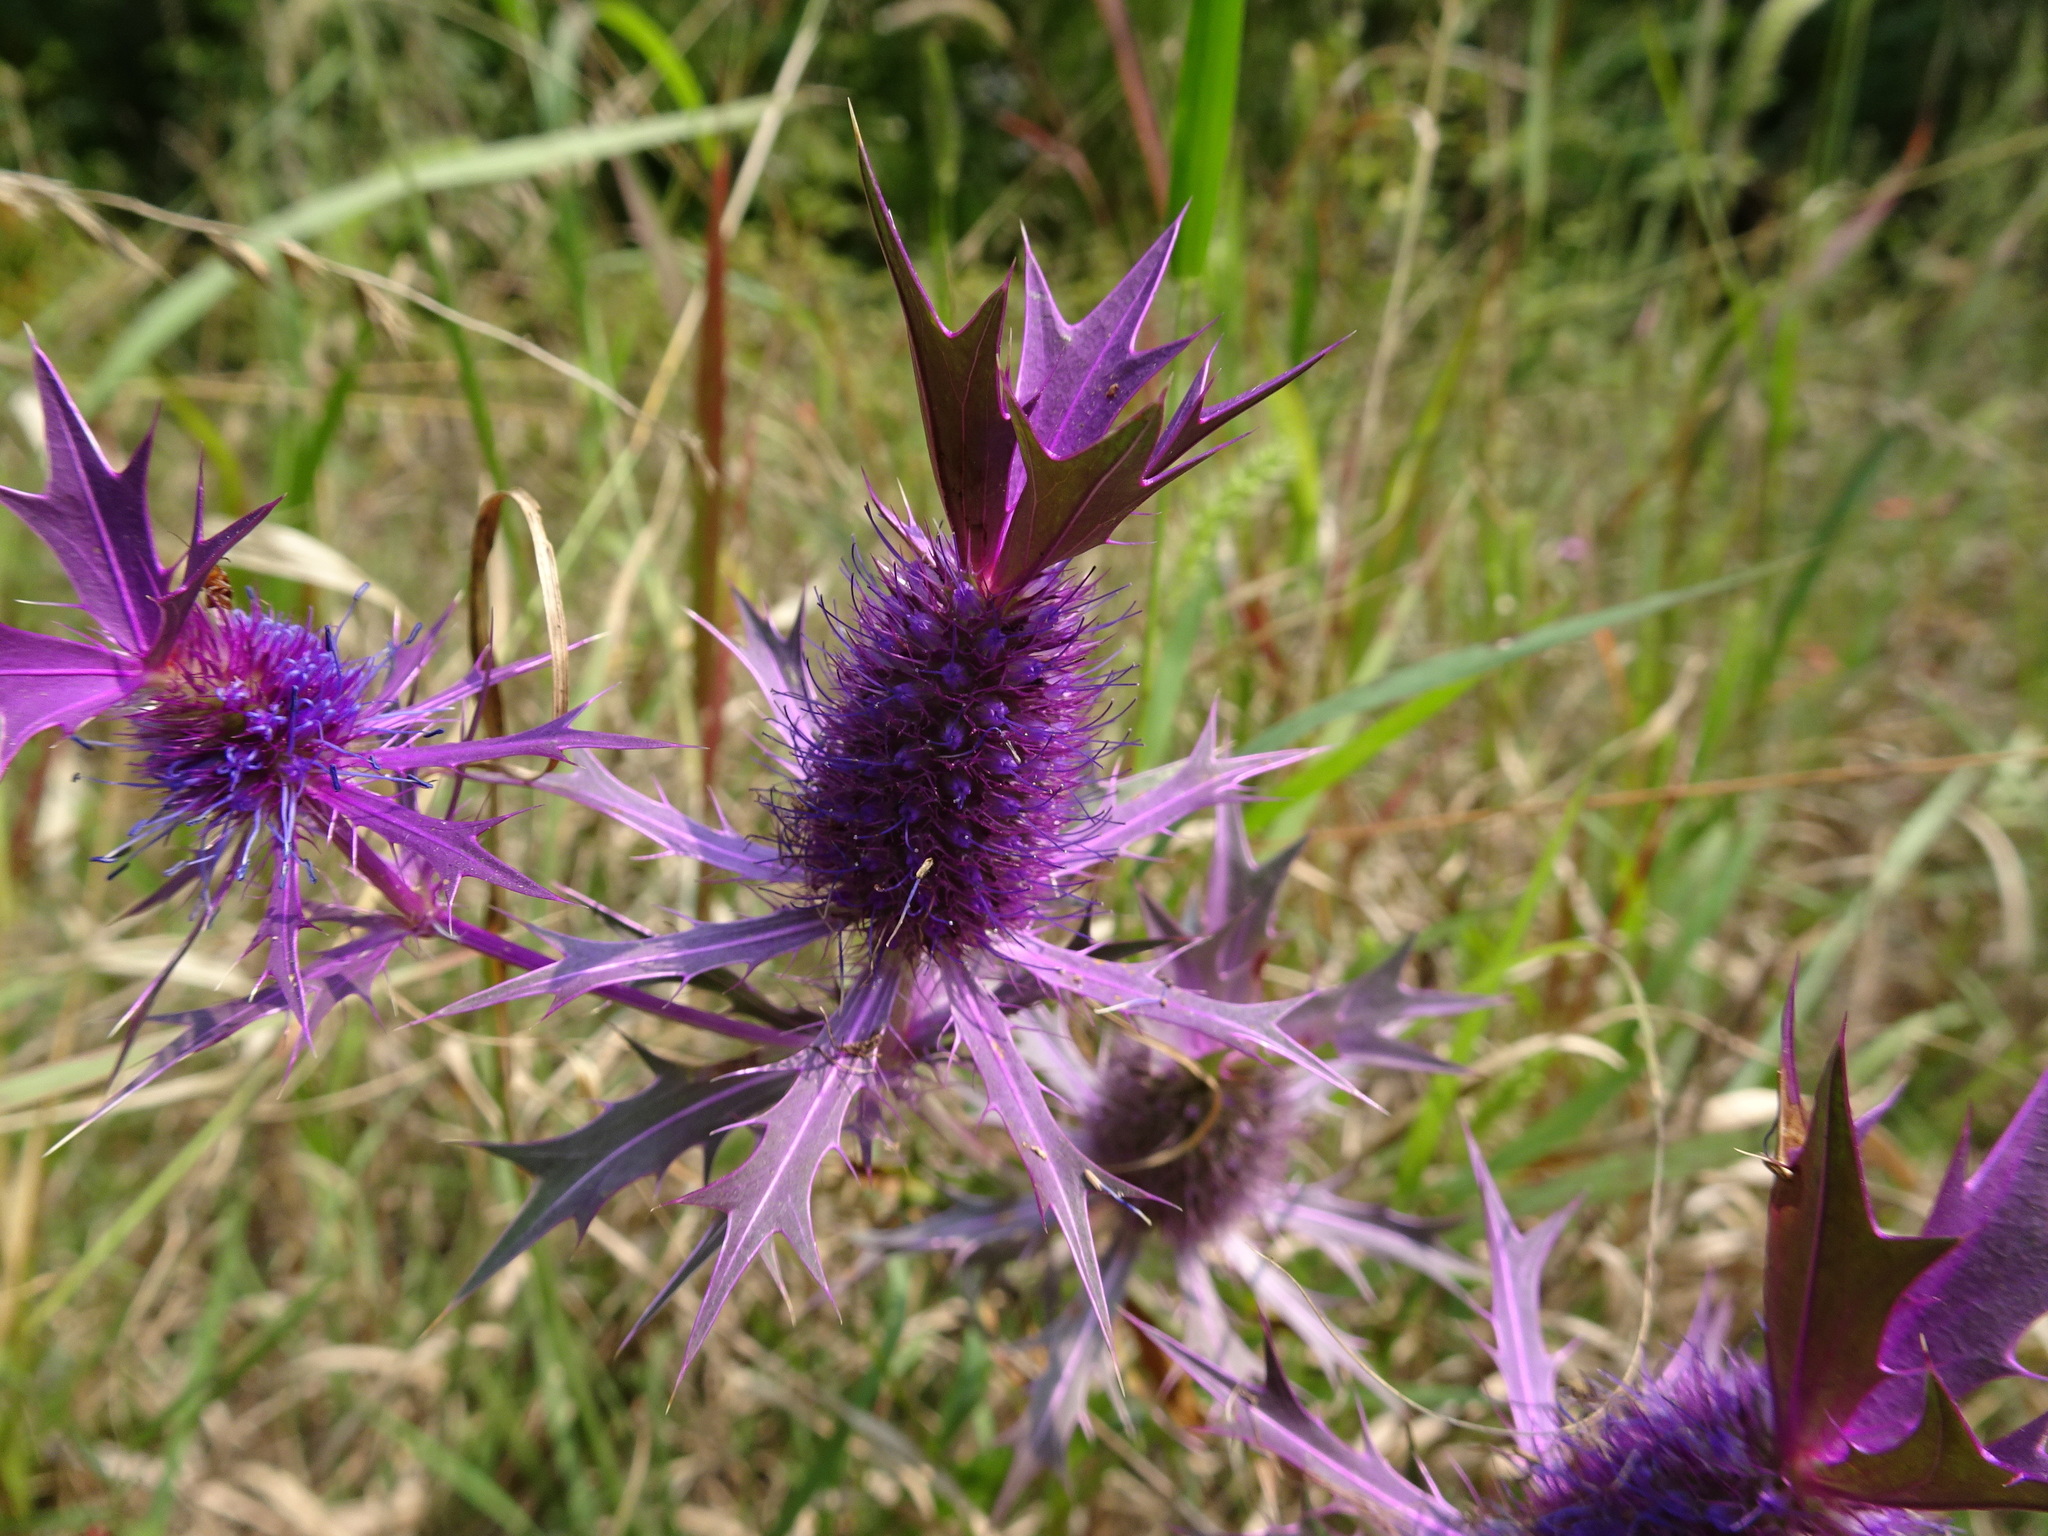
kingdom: Plantae
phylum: Tracheophyta
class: Magnoliopsida
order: Apiales
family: Apiaceae
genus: Eryngium
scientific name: Eryngium leavenworthii
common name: Leavenworth's eryngo
